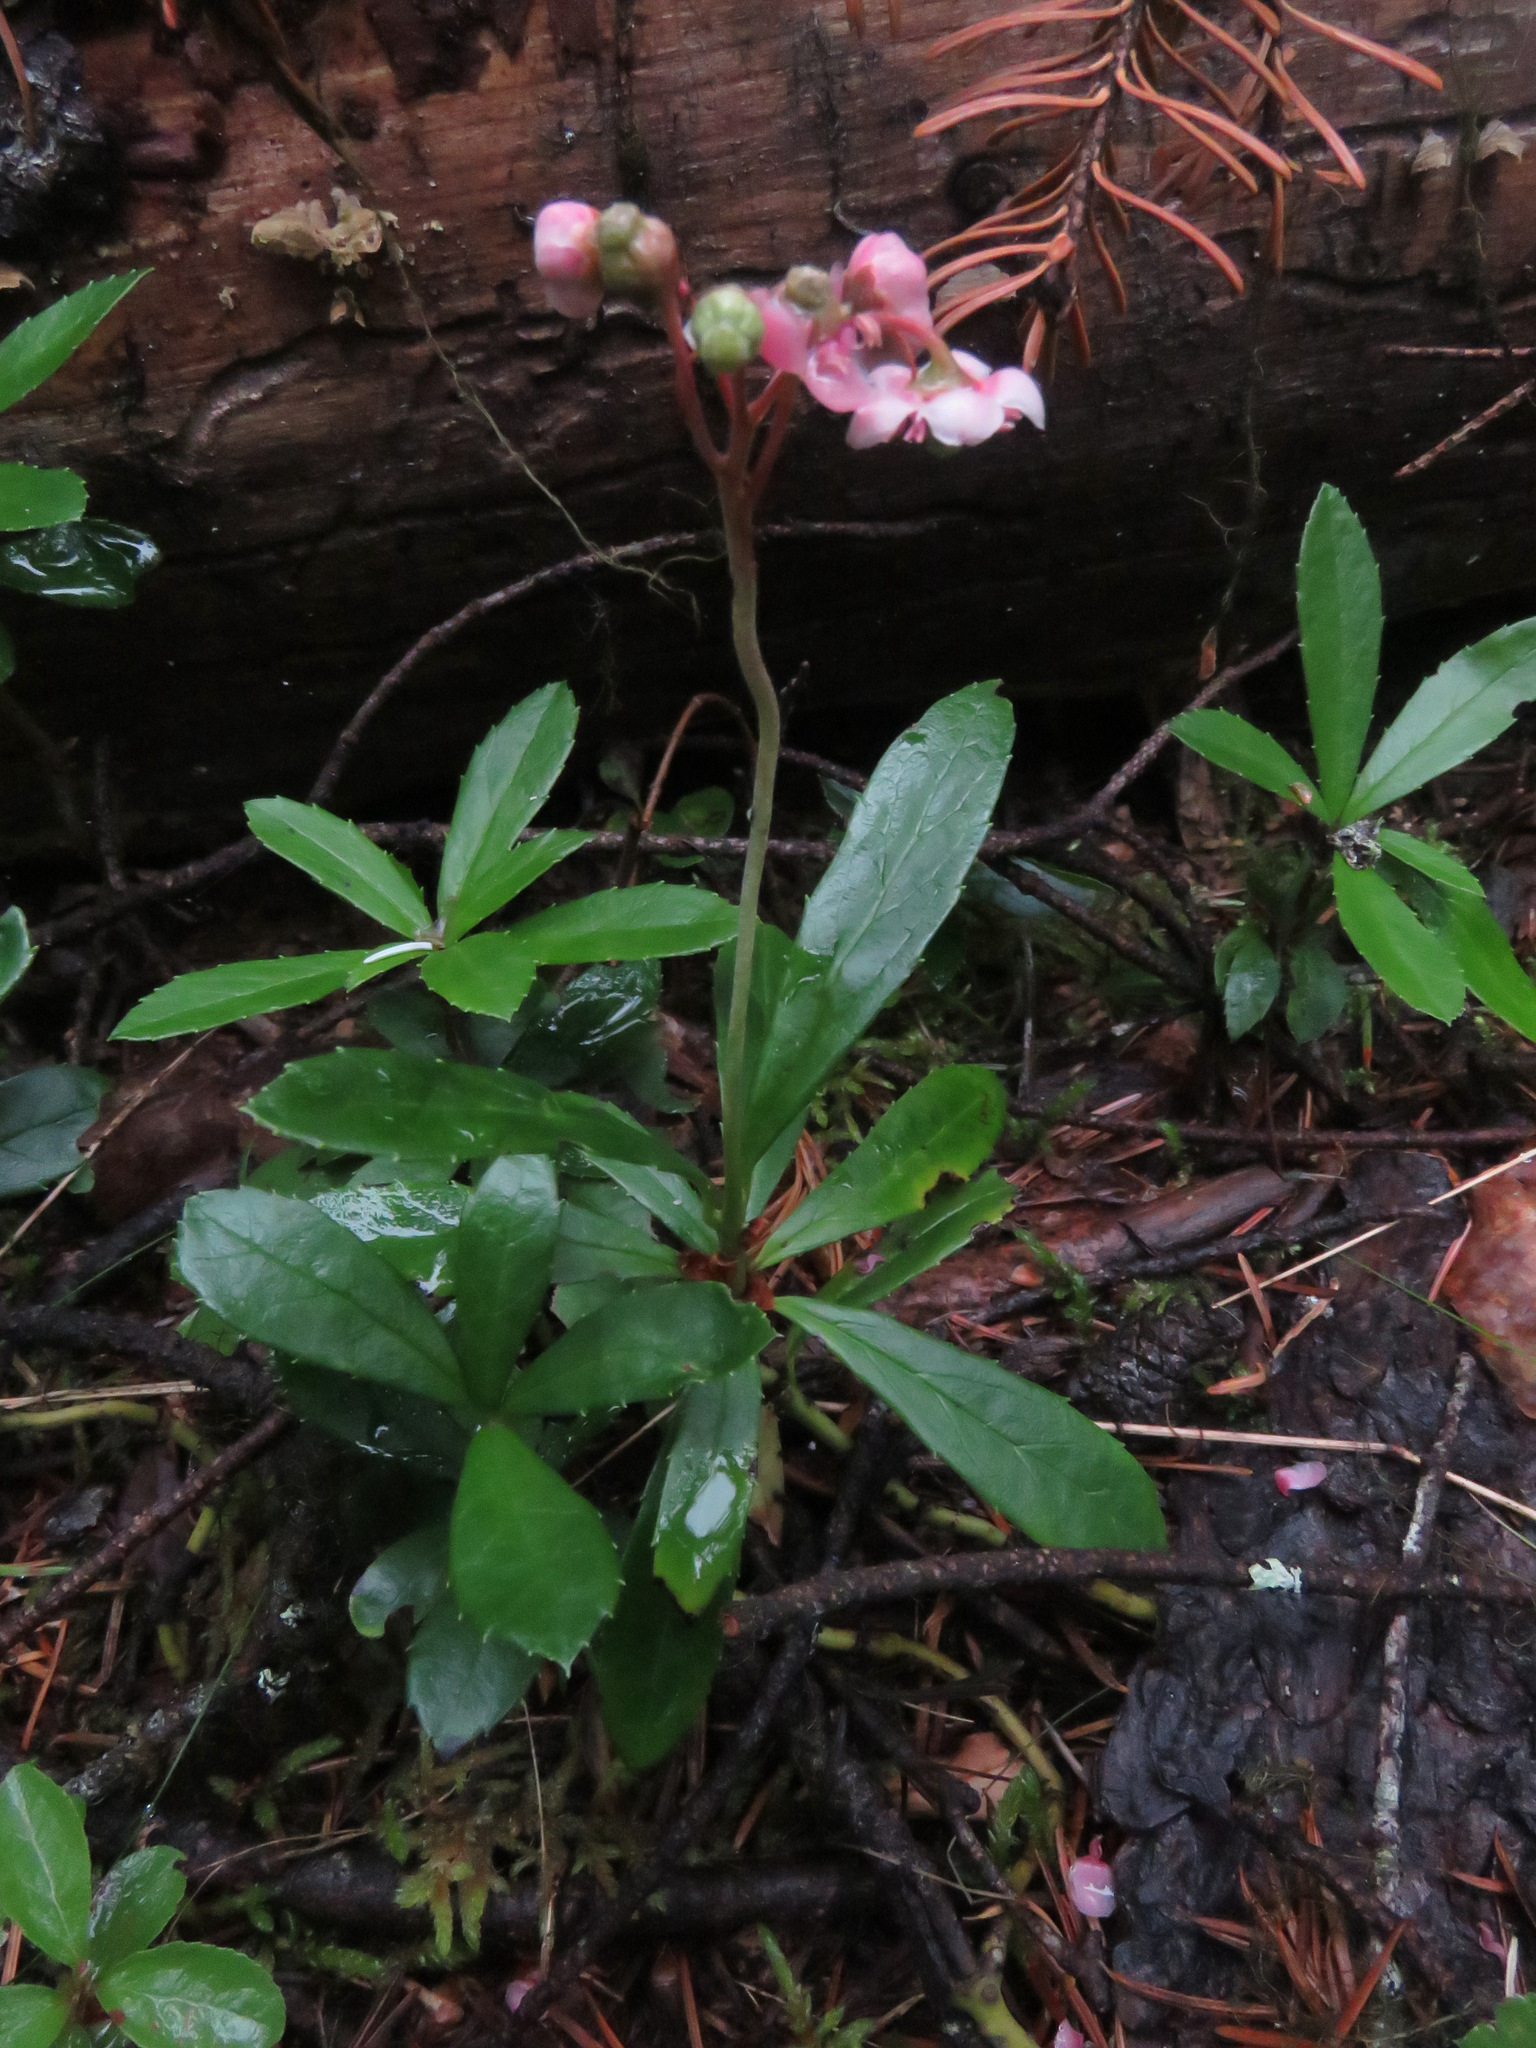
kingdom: Plantae
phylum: Tracheophyta
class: Magnoliopsida
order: Ericales
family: Ericaceae
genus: Chimaphila
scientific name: Chimaphila umbellata
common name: Pipsissewa
